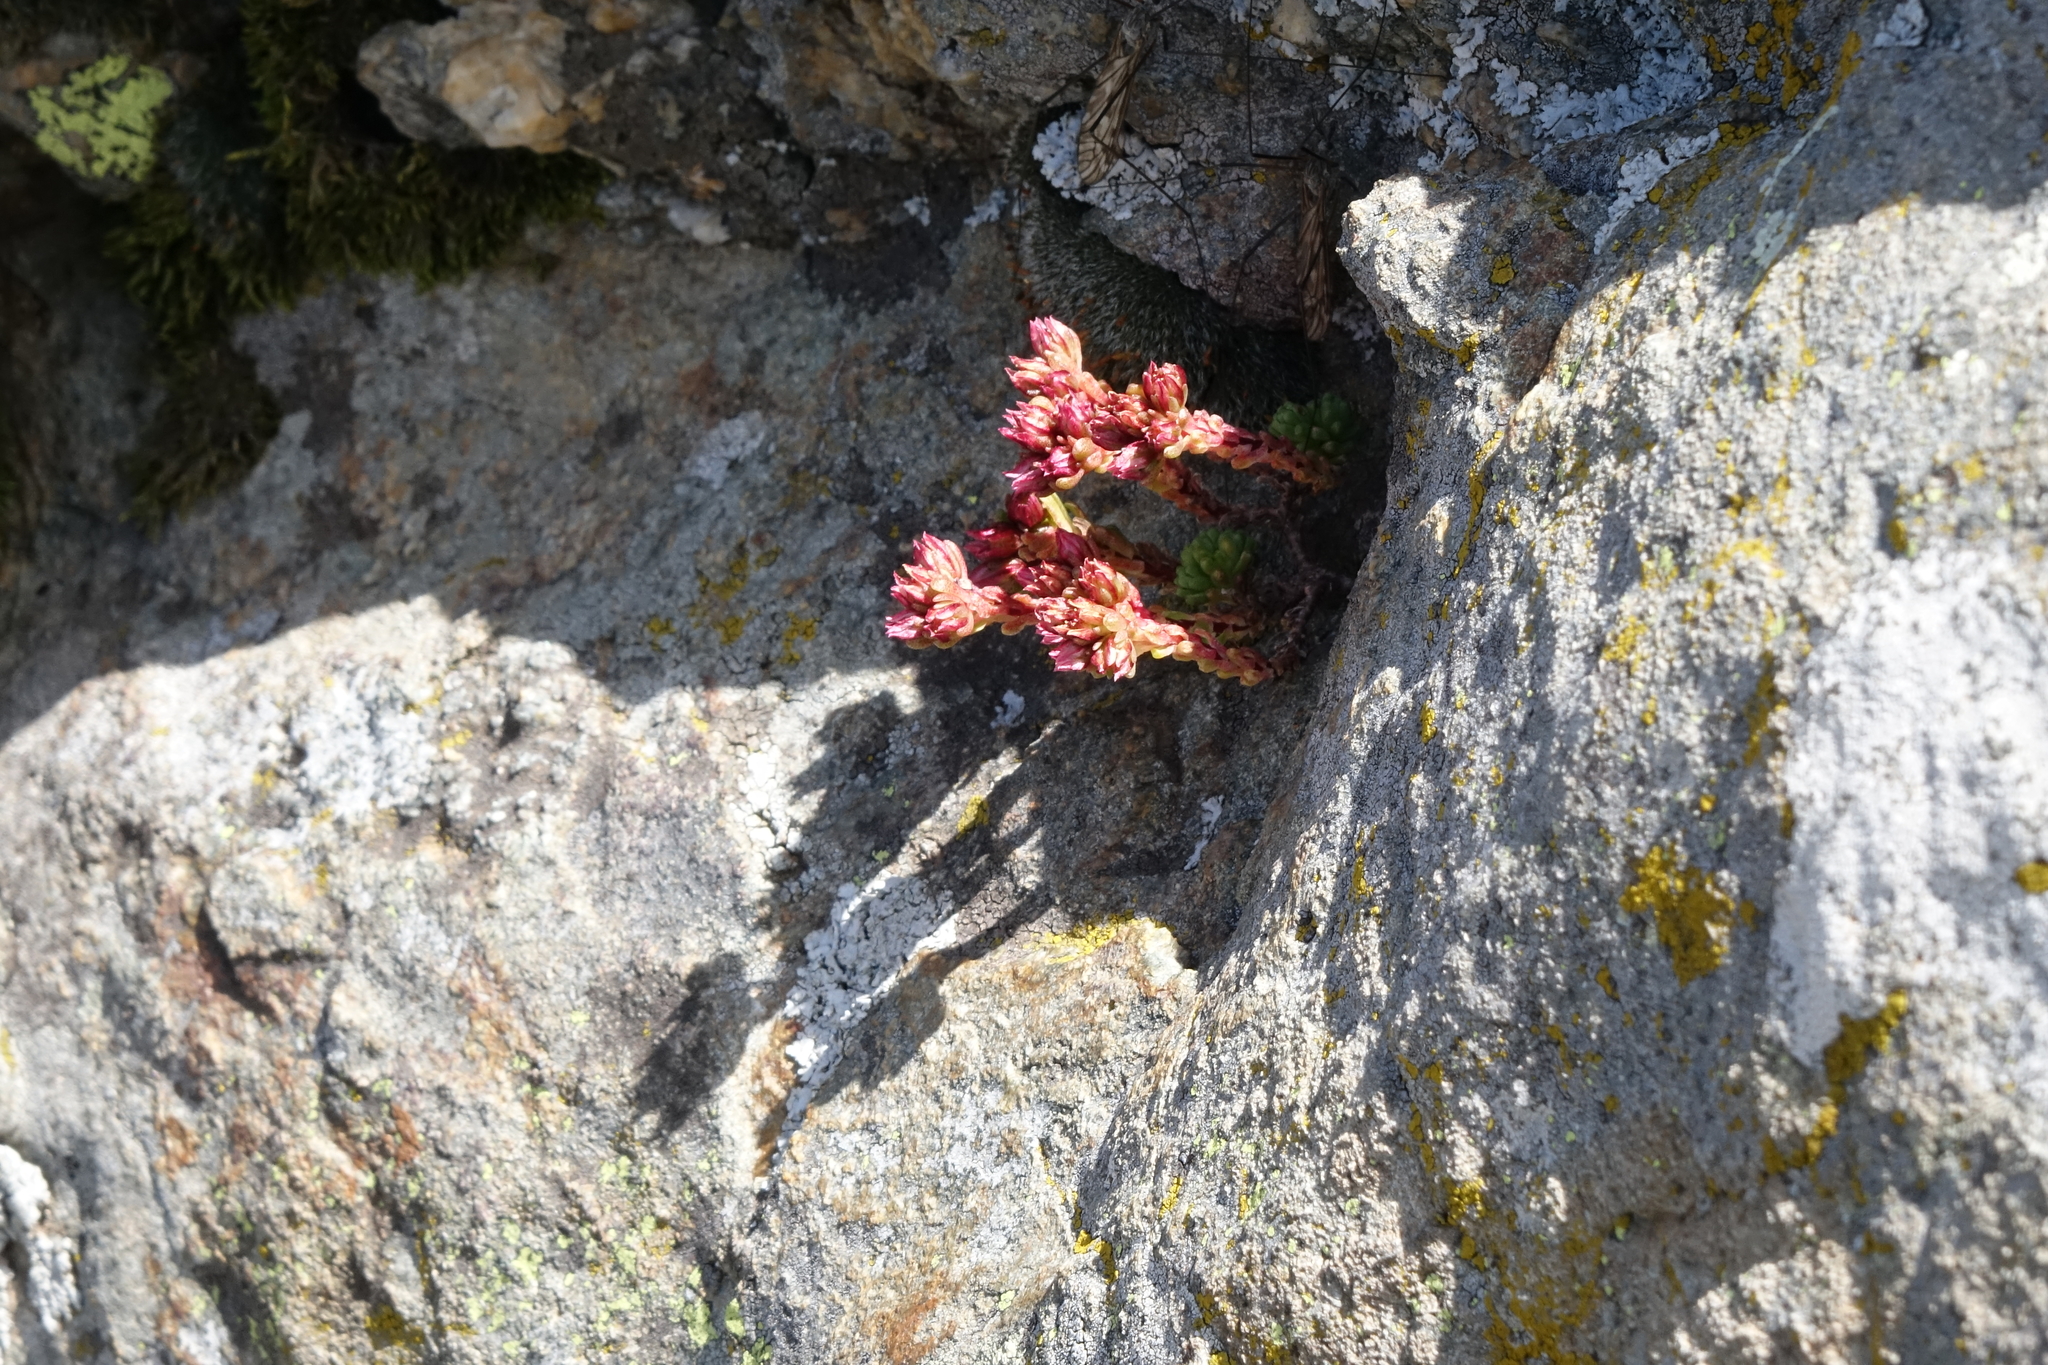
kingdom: Plantae
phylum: Tracheophyta
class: Magnoliopsida
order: Saxifragales
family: Crassulaceae
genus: Sedum
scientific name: Sedum tenellum
